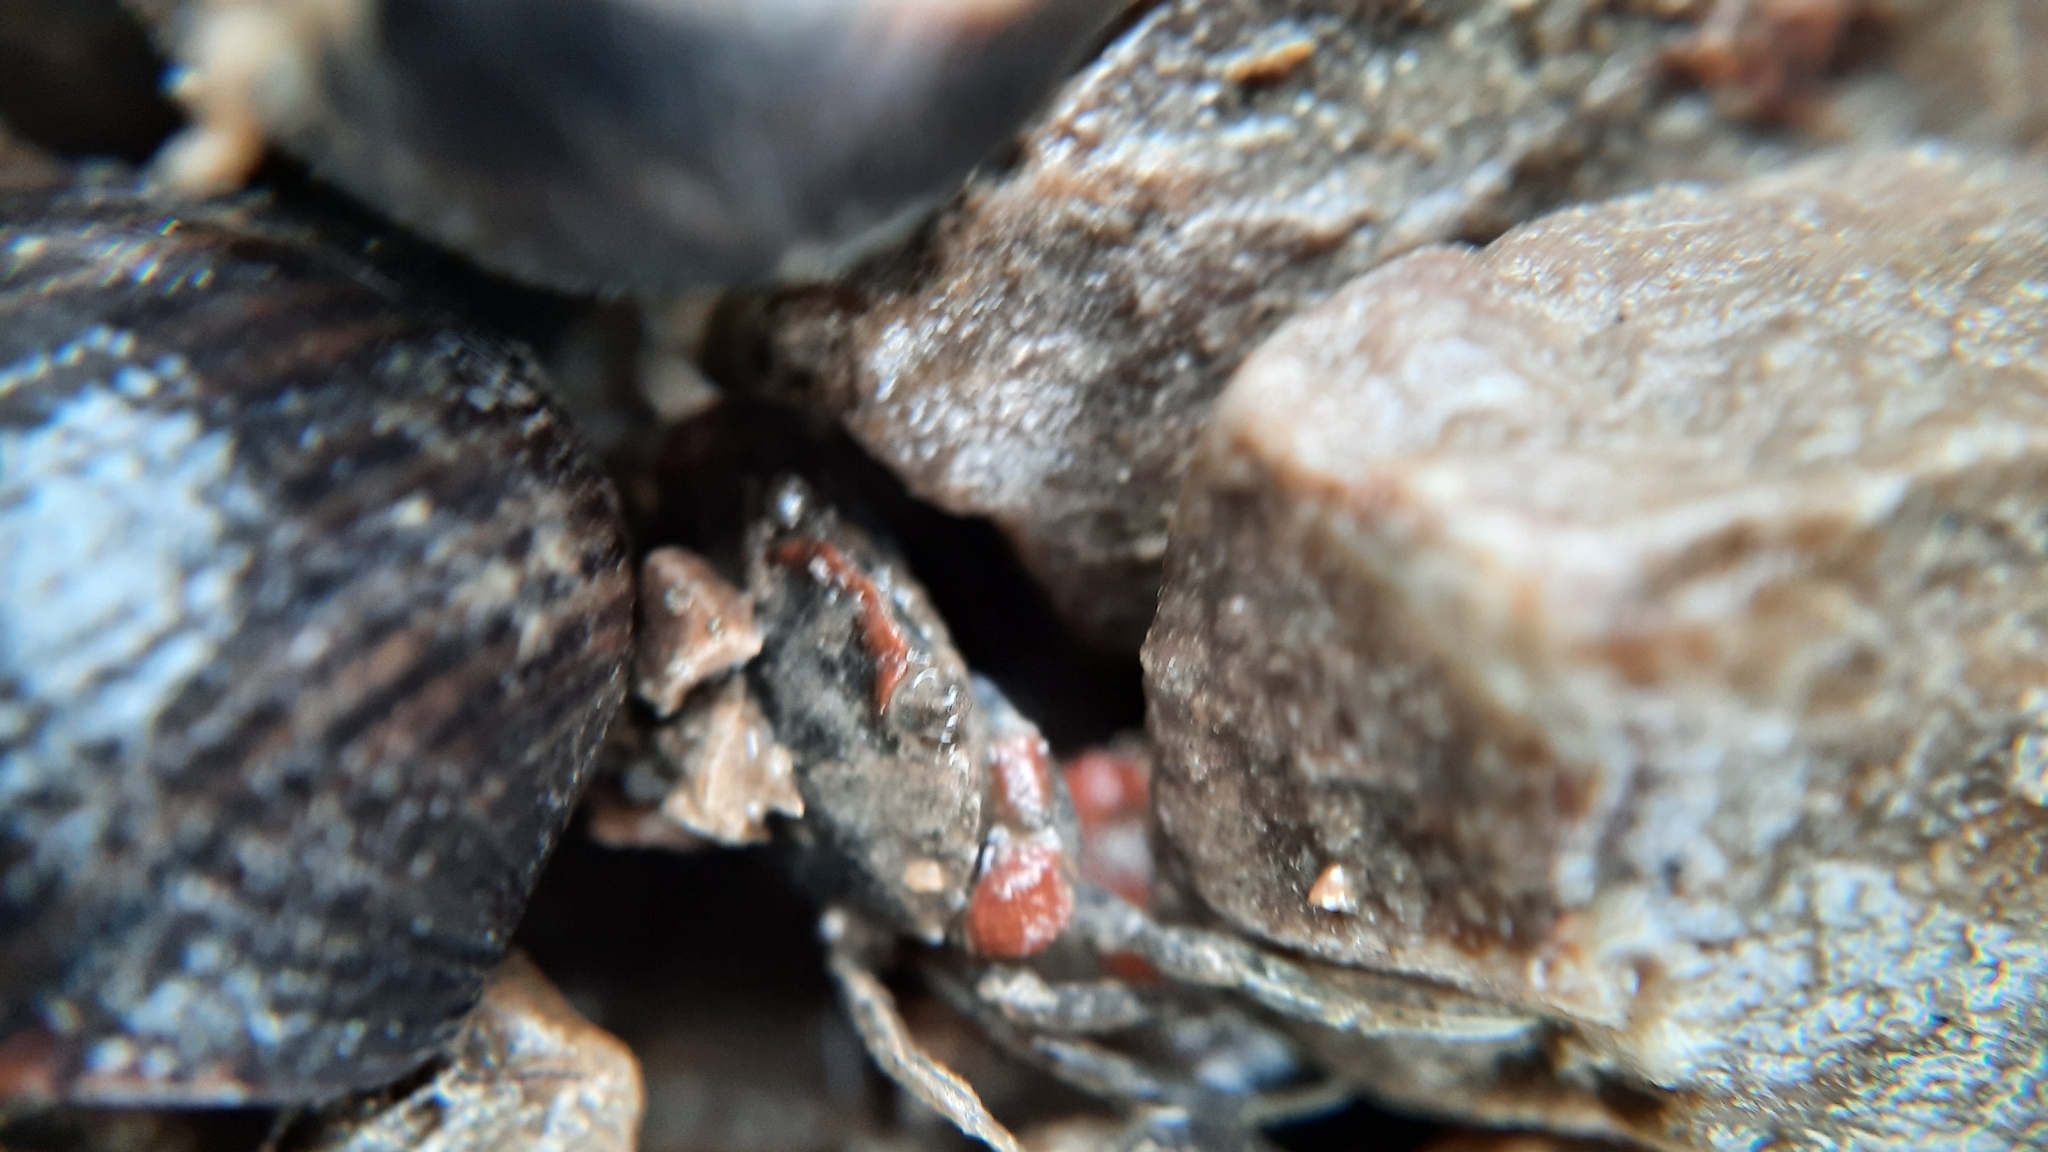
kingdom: Animalia
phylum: Arthropoda
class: Malacostraca
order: Decapoda
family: Carcinidae
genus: Carcinus
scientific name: Carcinus maenas
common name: European green crab
